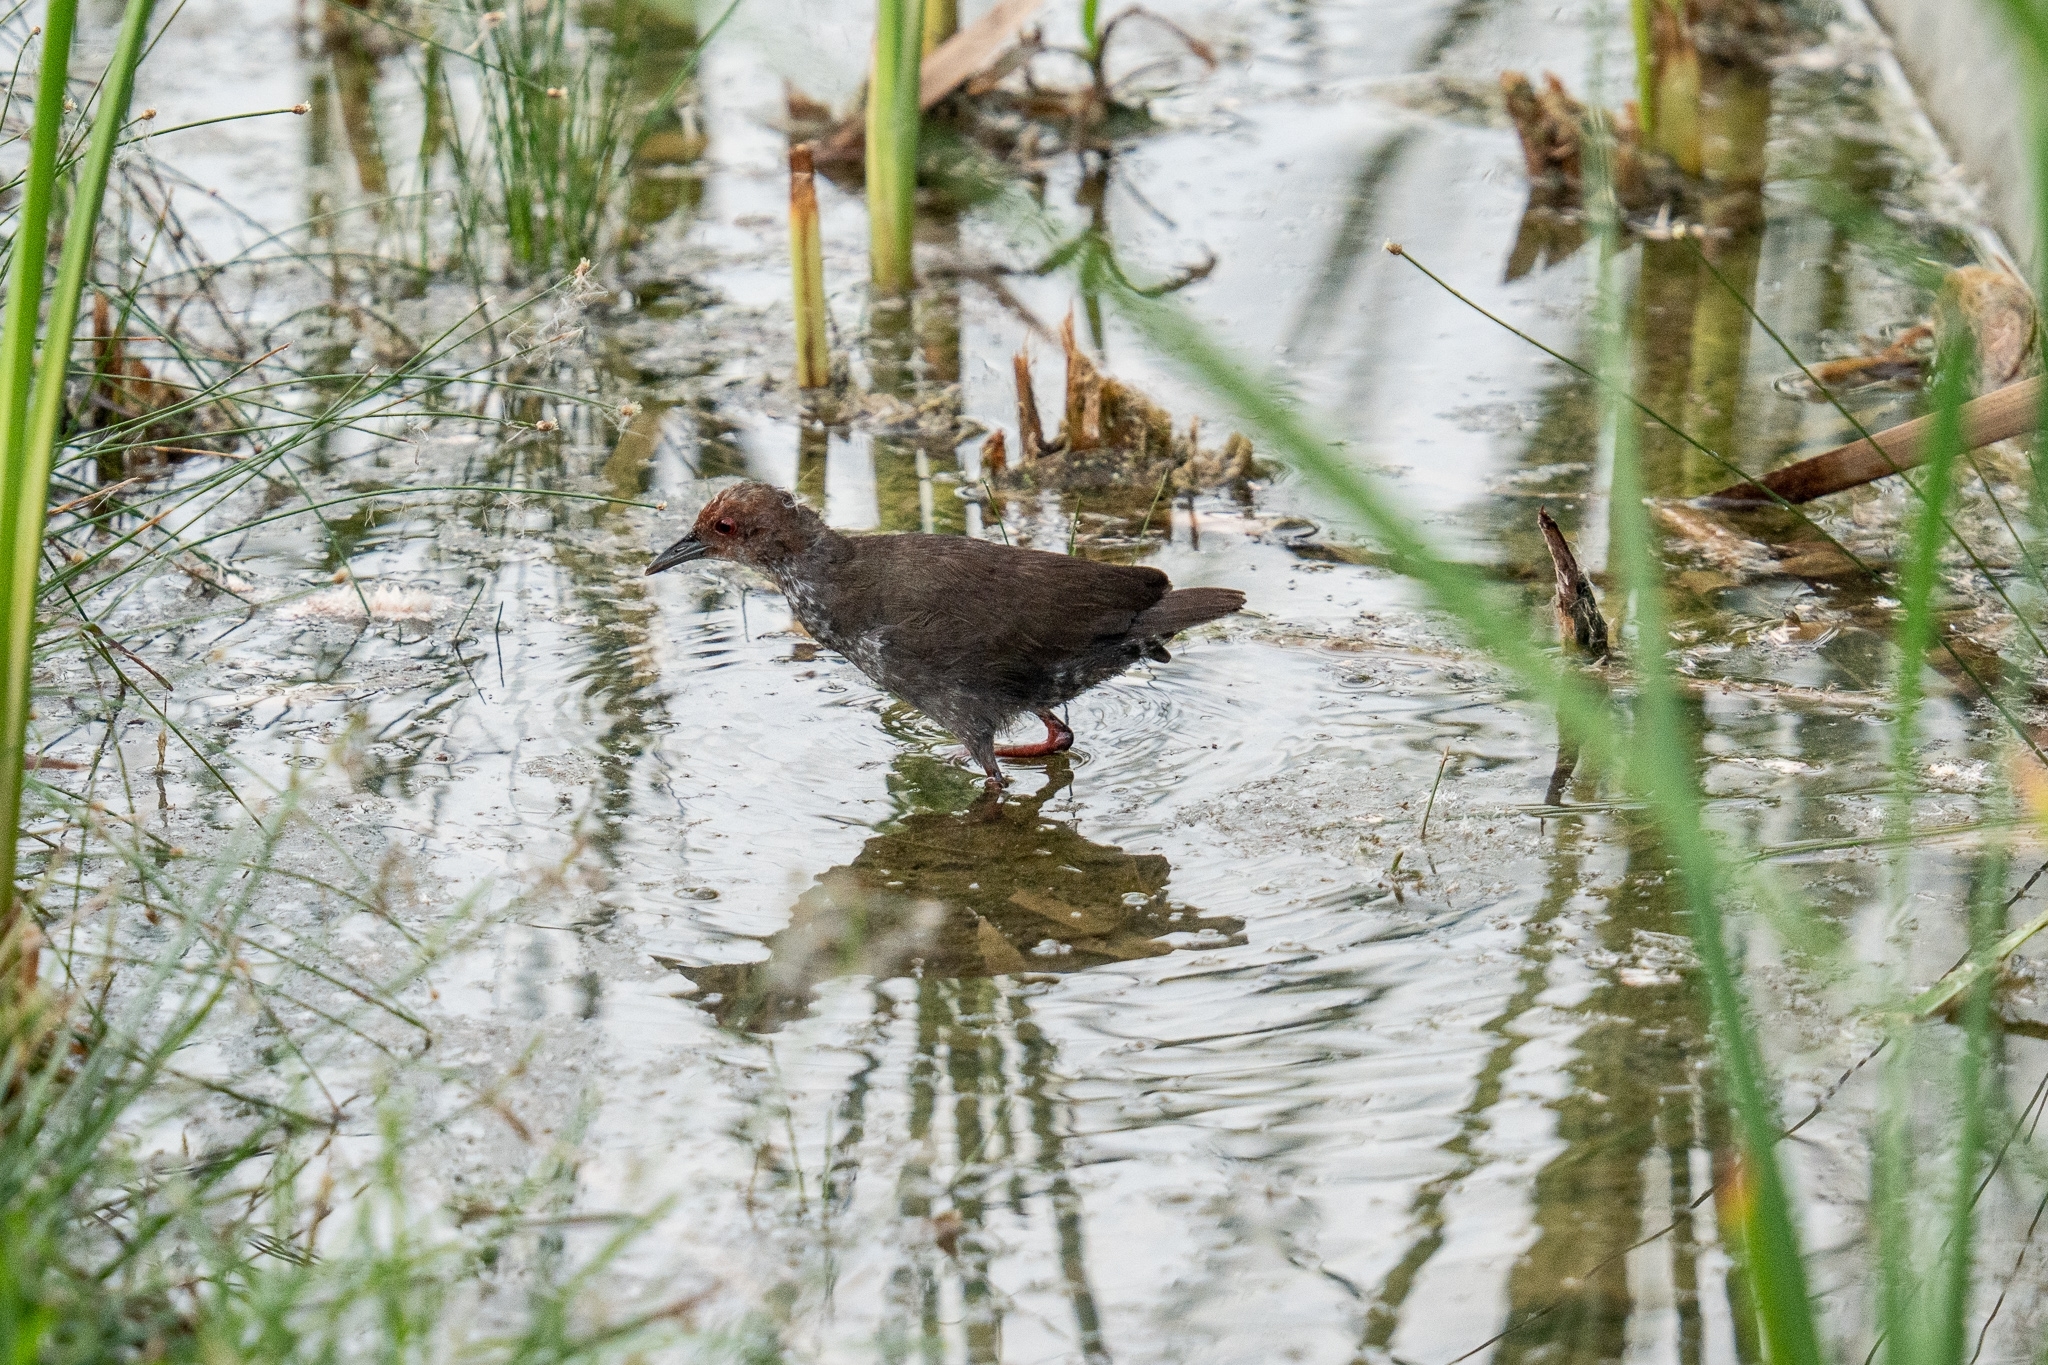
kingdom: Animalia
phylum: Chordata
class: Aves
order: Gruiformes
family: Rallidae
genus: Porzana
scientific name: Porzana fusca
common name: Ruddy-breasted crake
